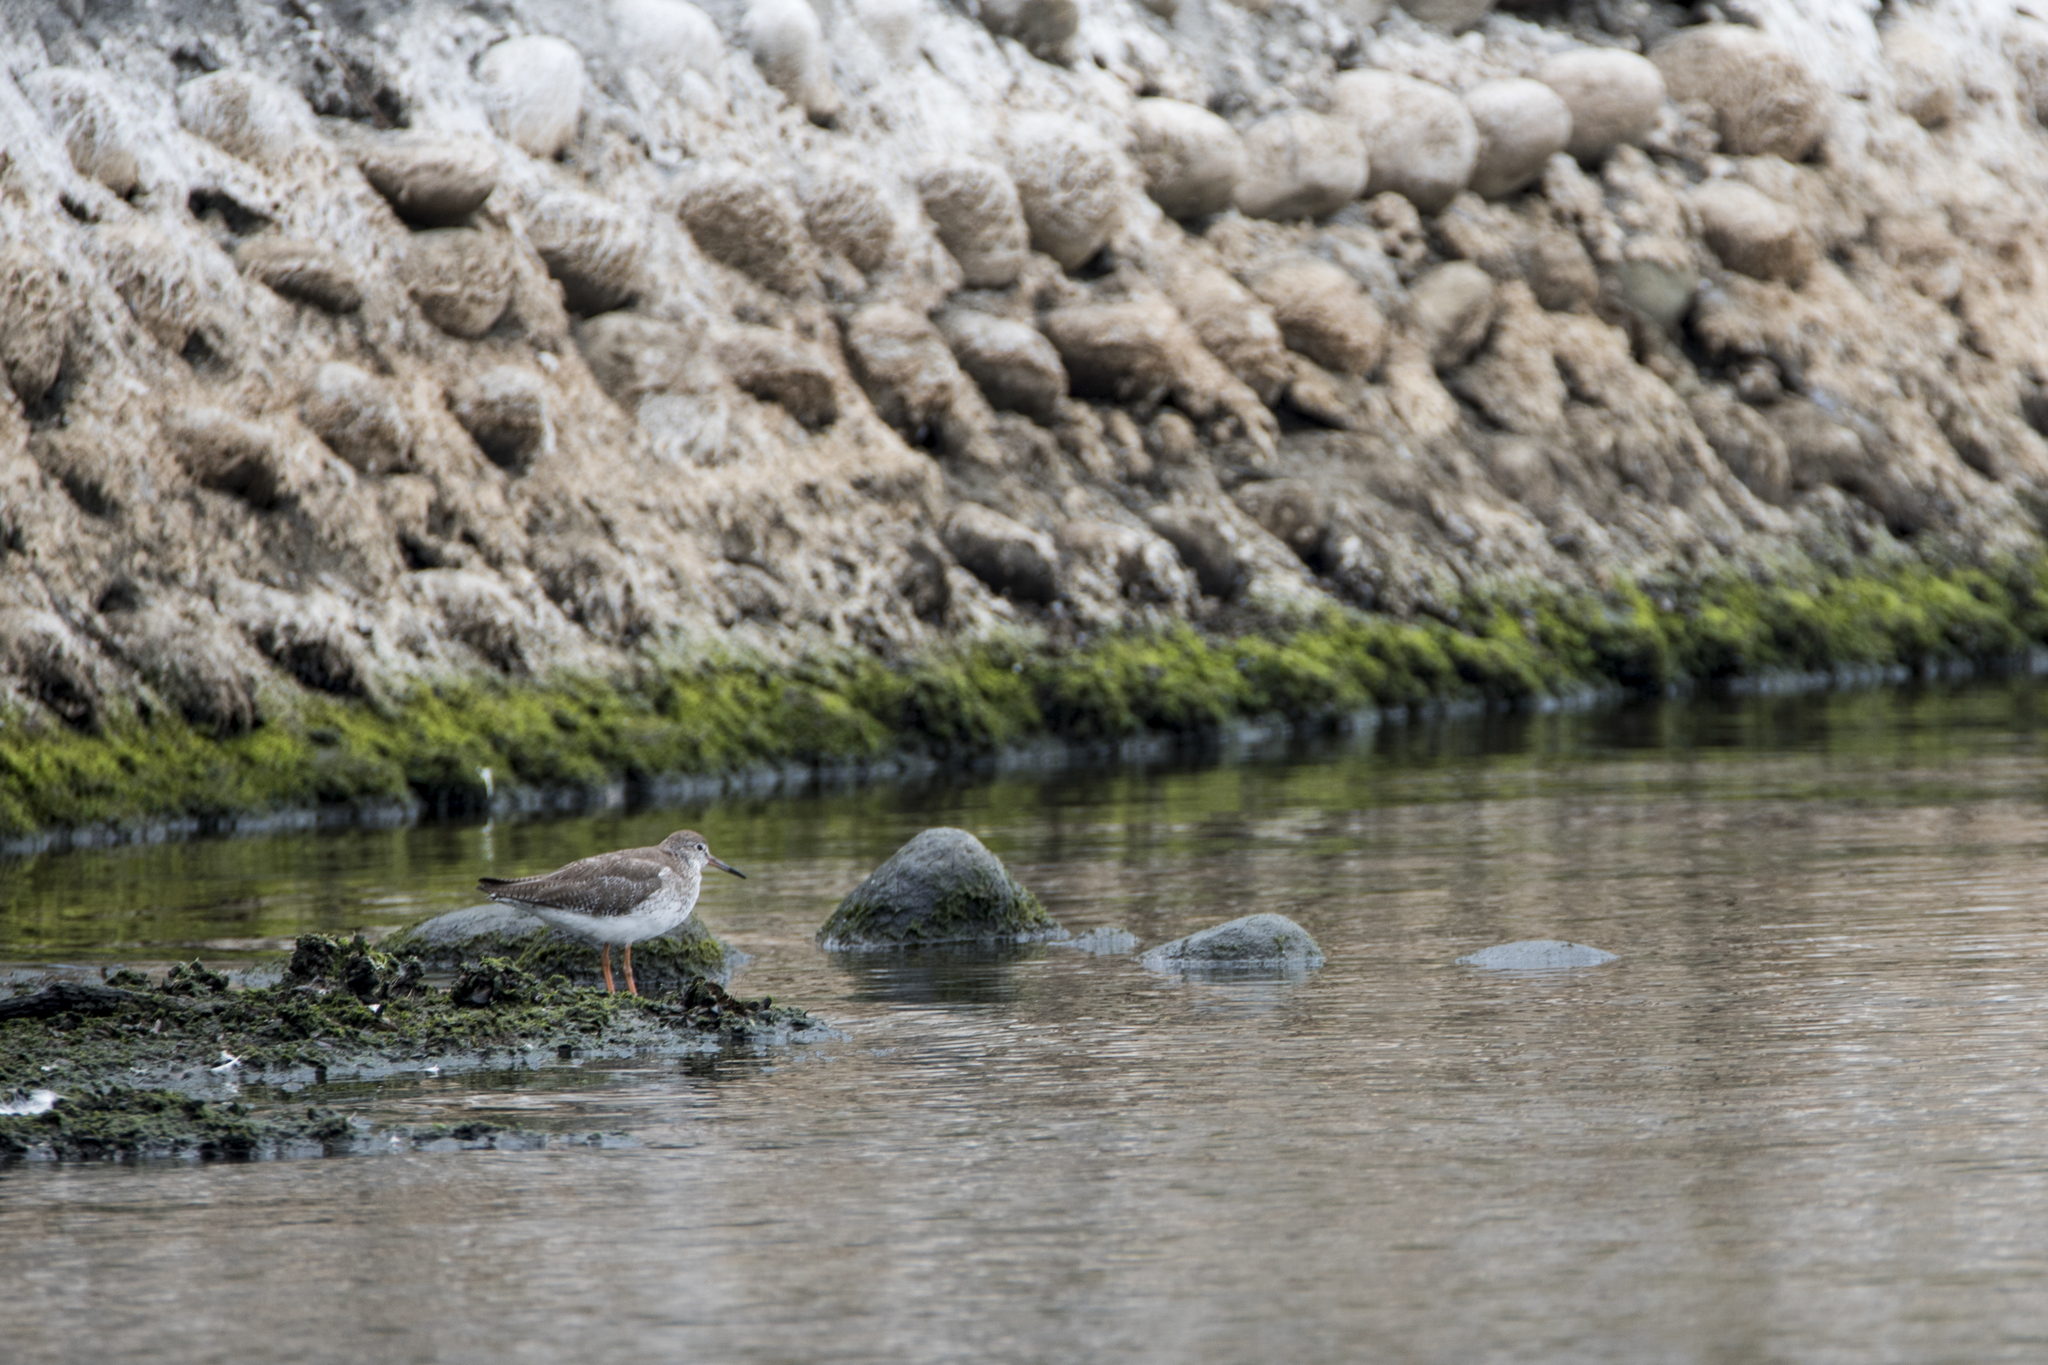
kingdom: Animalia
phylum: Chordata
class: Aves
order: Charadriiformes
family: Scolopacidae
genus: Tringa
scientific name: Tringa totanus
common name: Common redshank
